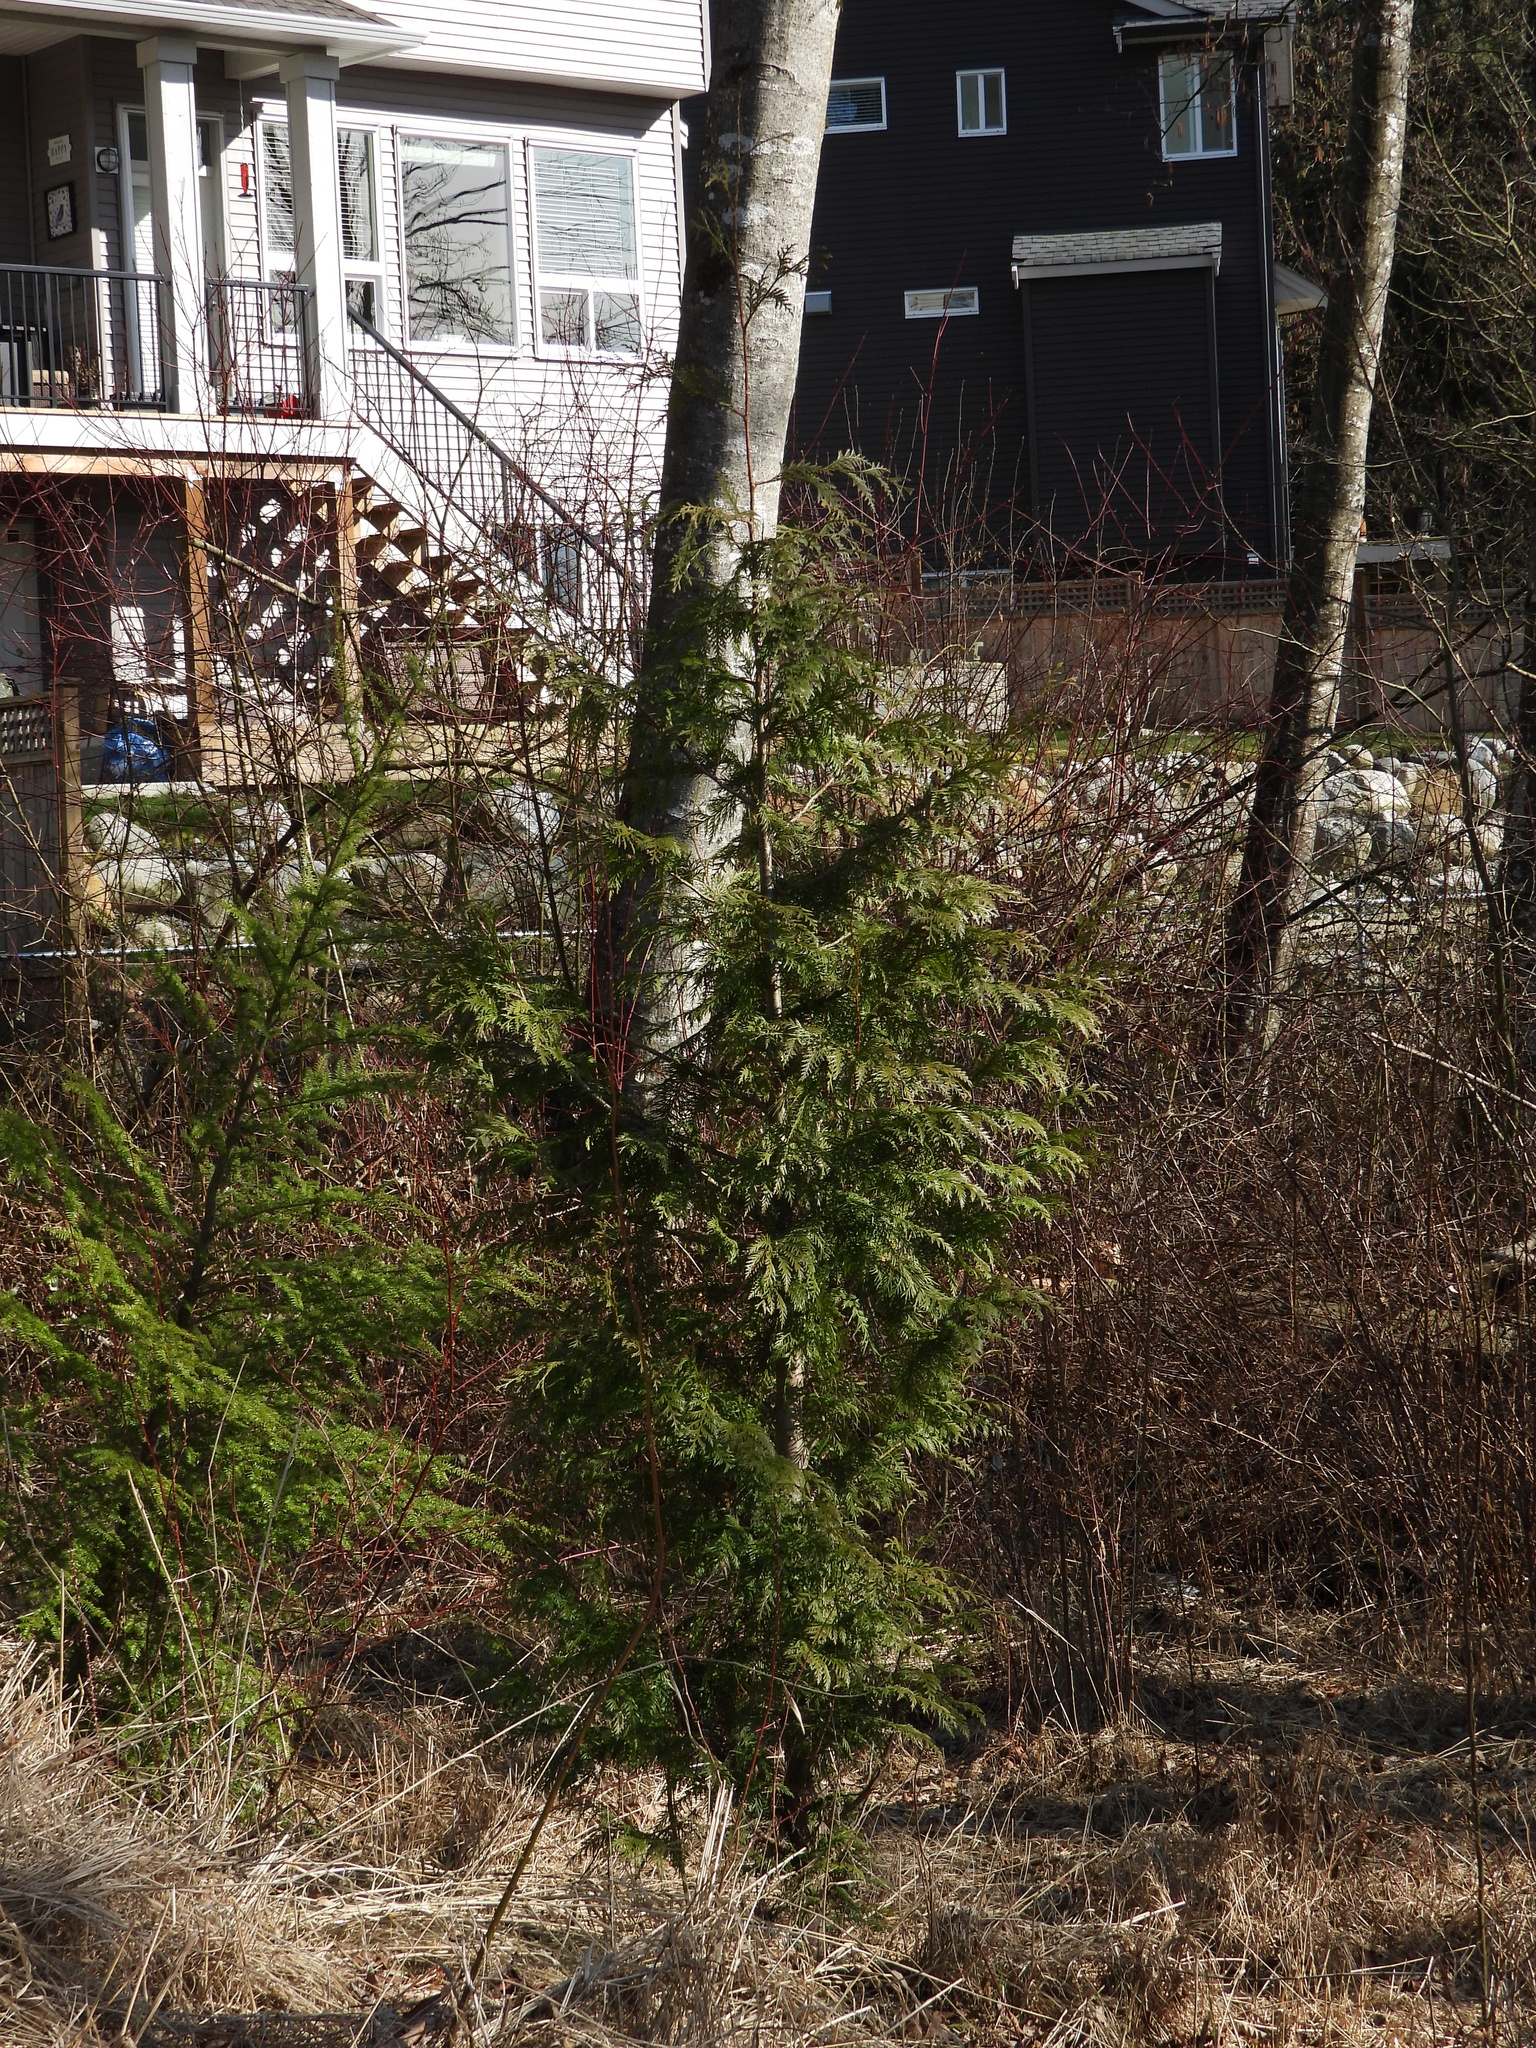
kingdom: Plantae
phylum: Tracheophyta
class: Pinopsida
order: Pinales
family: Cupressaceae
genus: Thuja
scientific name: Thuja plicata
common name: Western red-cedar
